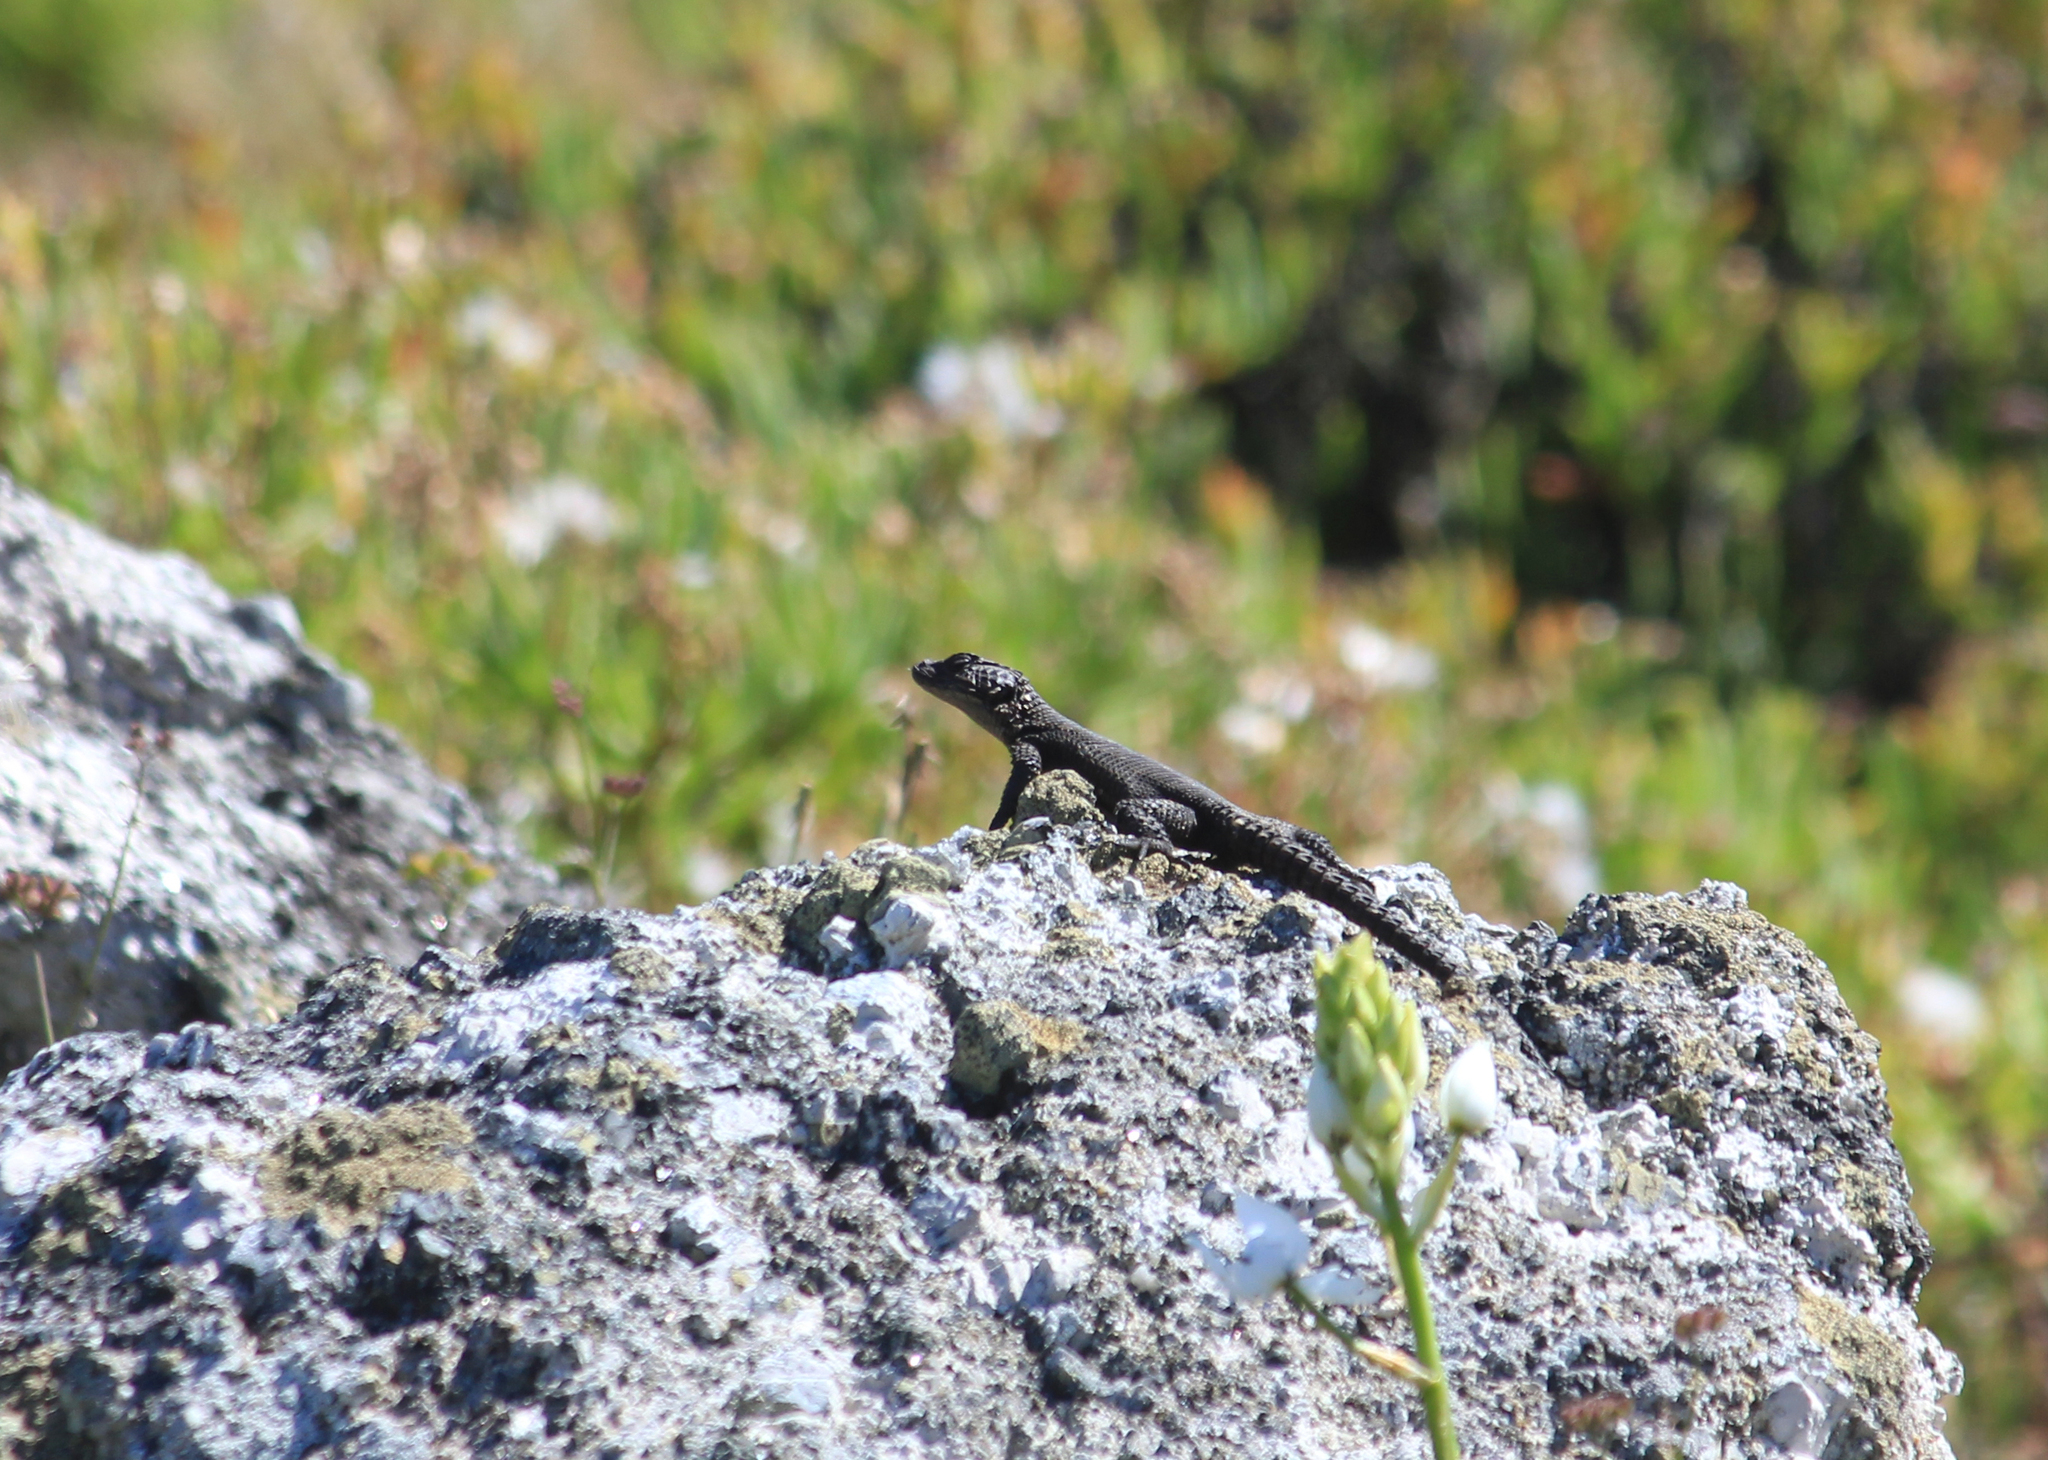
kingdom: Animalia
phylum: Chordata
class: Squamata
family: Cordylidae
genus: Karusasaurus
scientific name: Karusasaurus polyzonus
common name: Karoo girdled lizard
